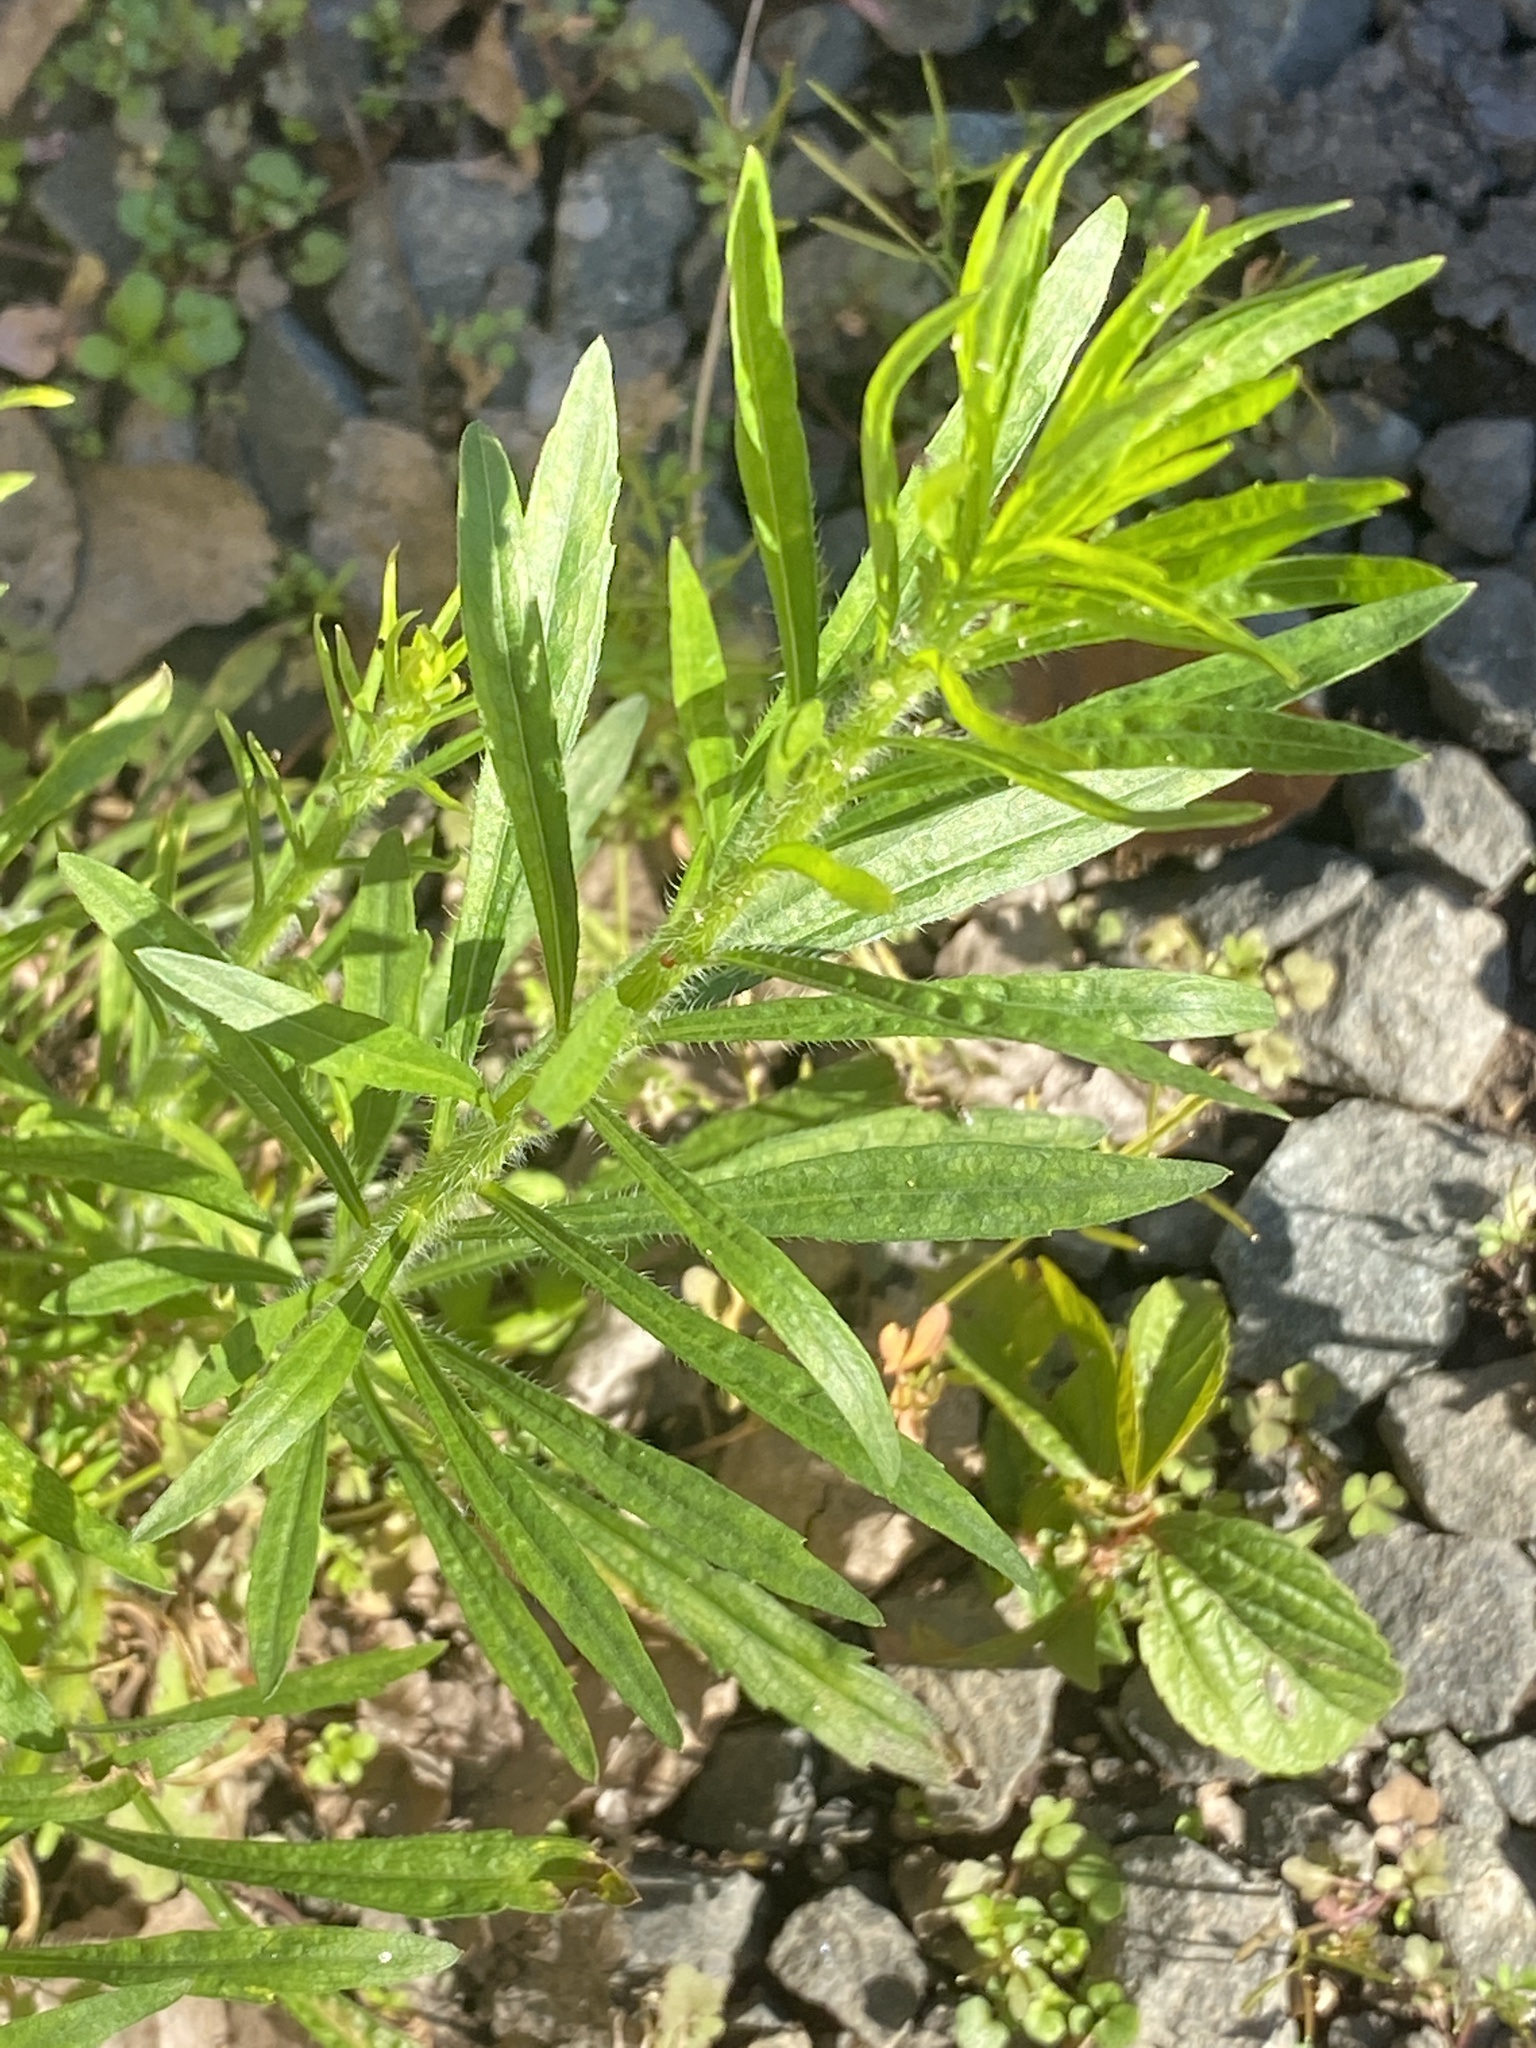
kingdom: Plantae
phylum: Tracheophyta
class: Magnoliopsida
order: Asterales
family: Asteraceae
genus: Erigeron
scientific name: Erigeron canadensis
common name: Canadian fleabane
